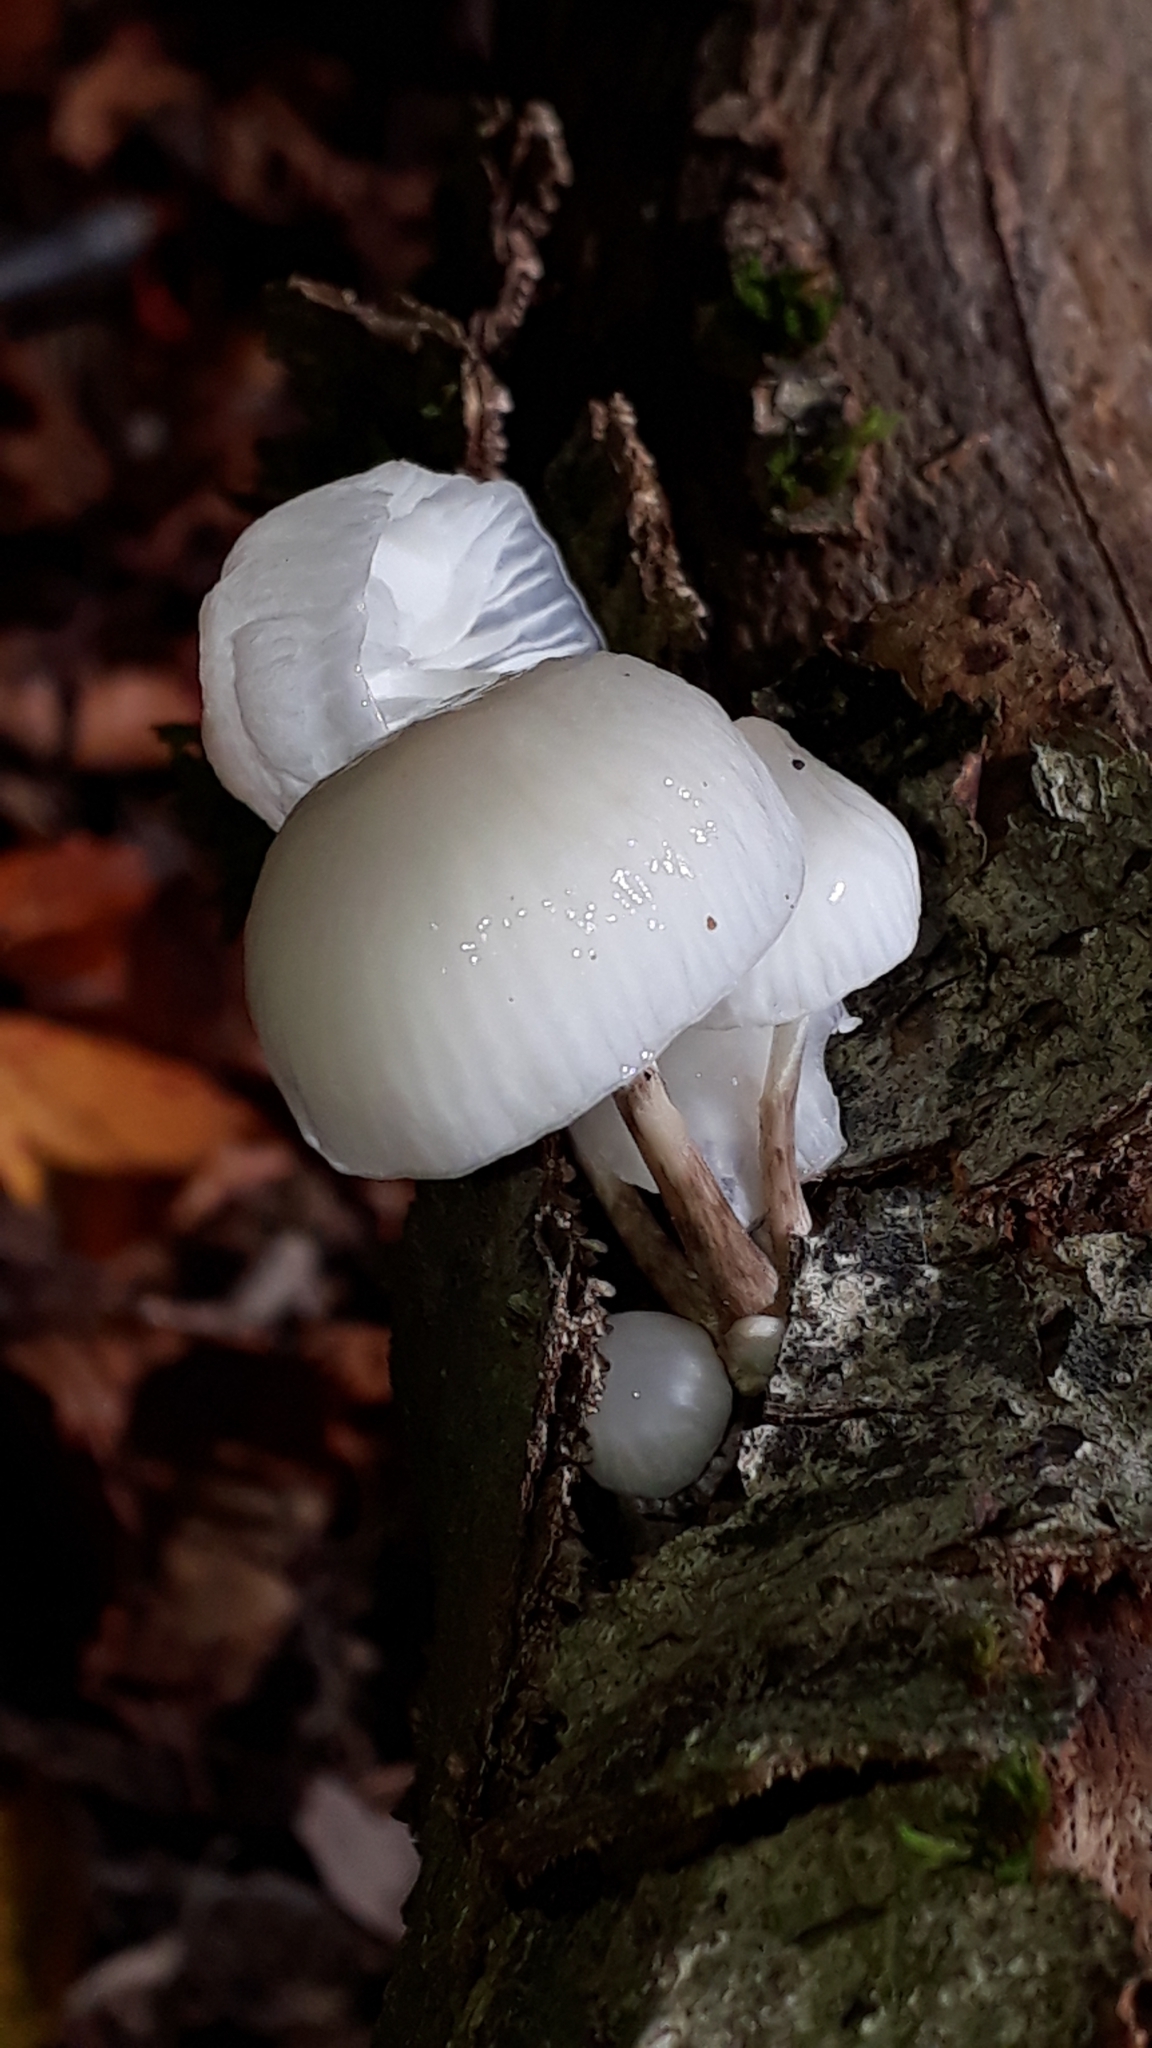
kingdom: Fungi
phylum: Basidiomycota
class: Agaricomycetes
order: Agaricales
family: Physalacriaceae
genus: Mucidula
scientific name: Mucidula mucida
